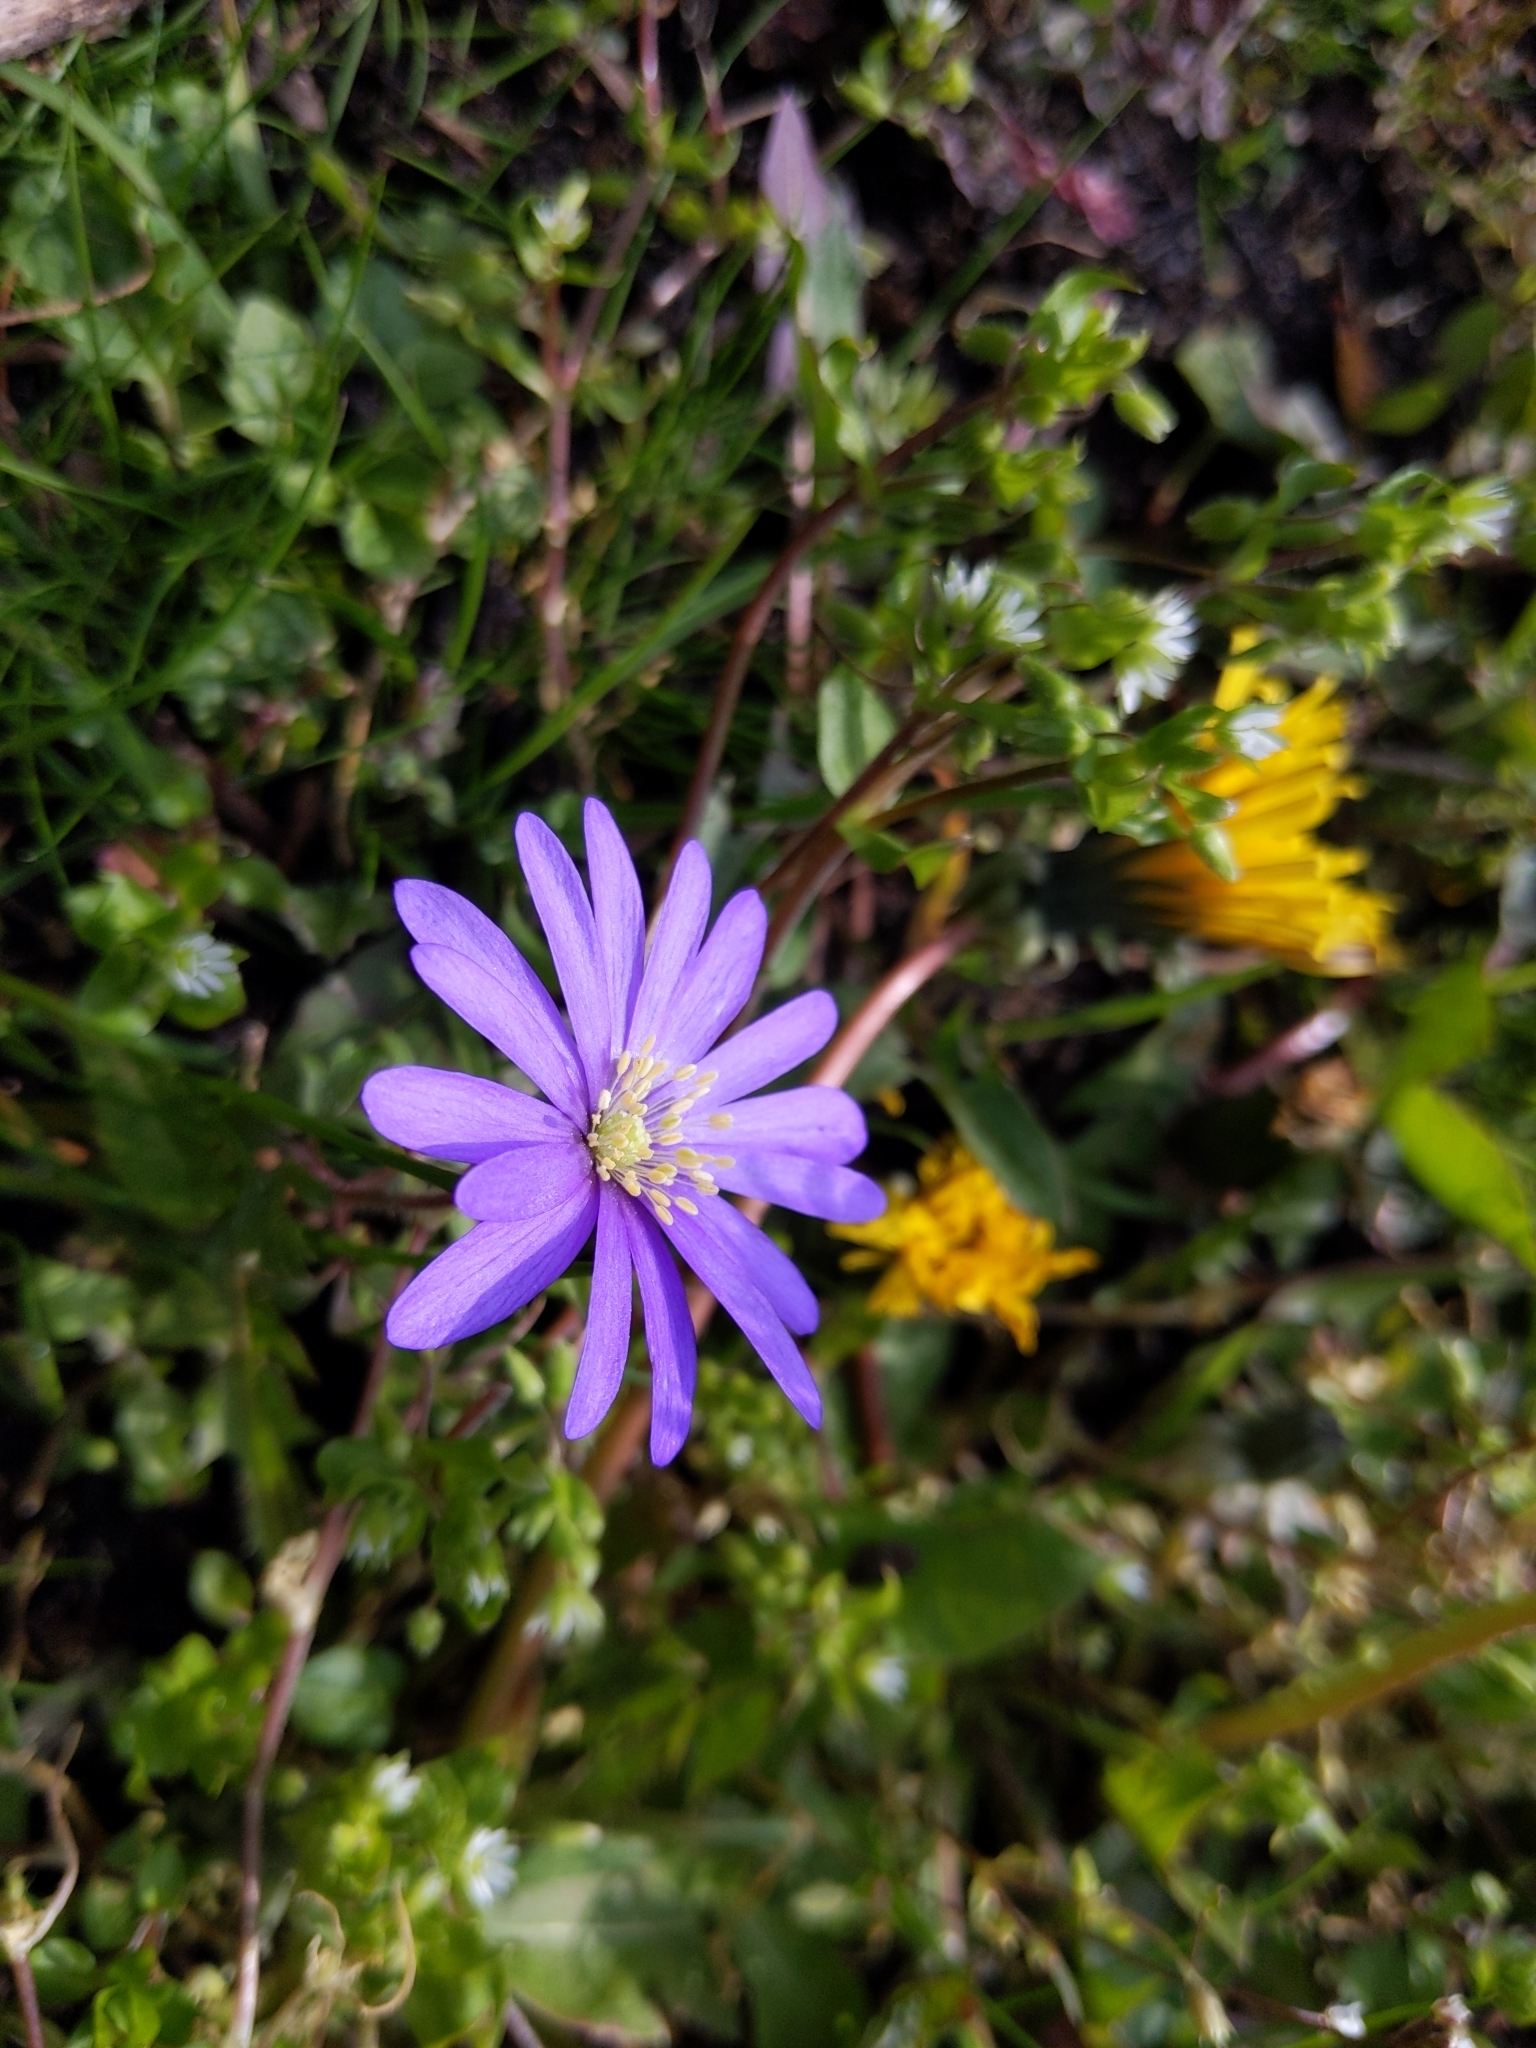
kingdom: Plantae
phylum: Tracheophyta
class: Magnoliopsida
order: Ranunculales
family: Ranunculaceae
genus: Anemone
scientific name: Anemone blanda
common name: Balkan anemone
